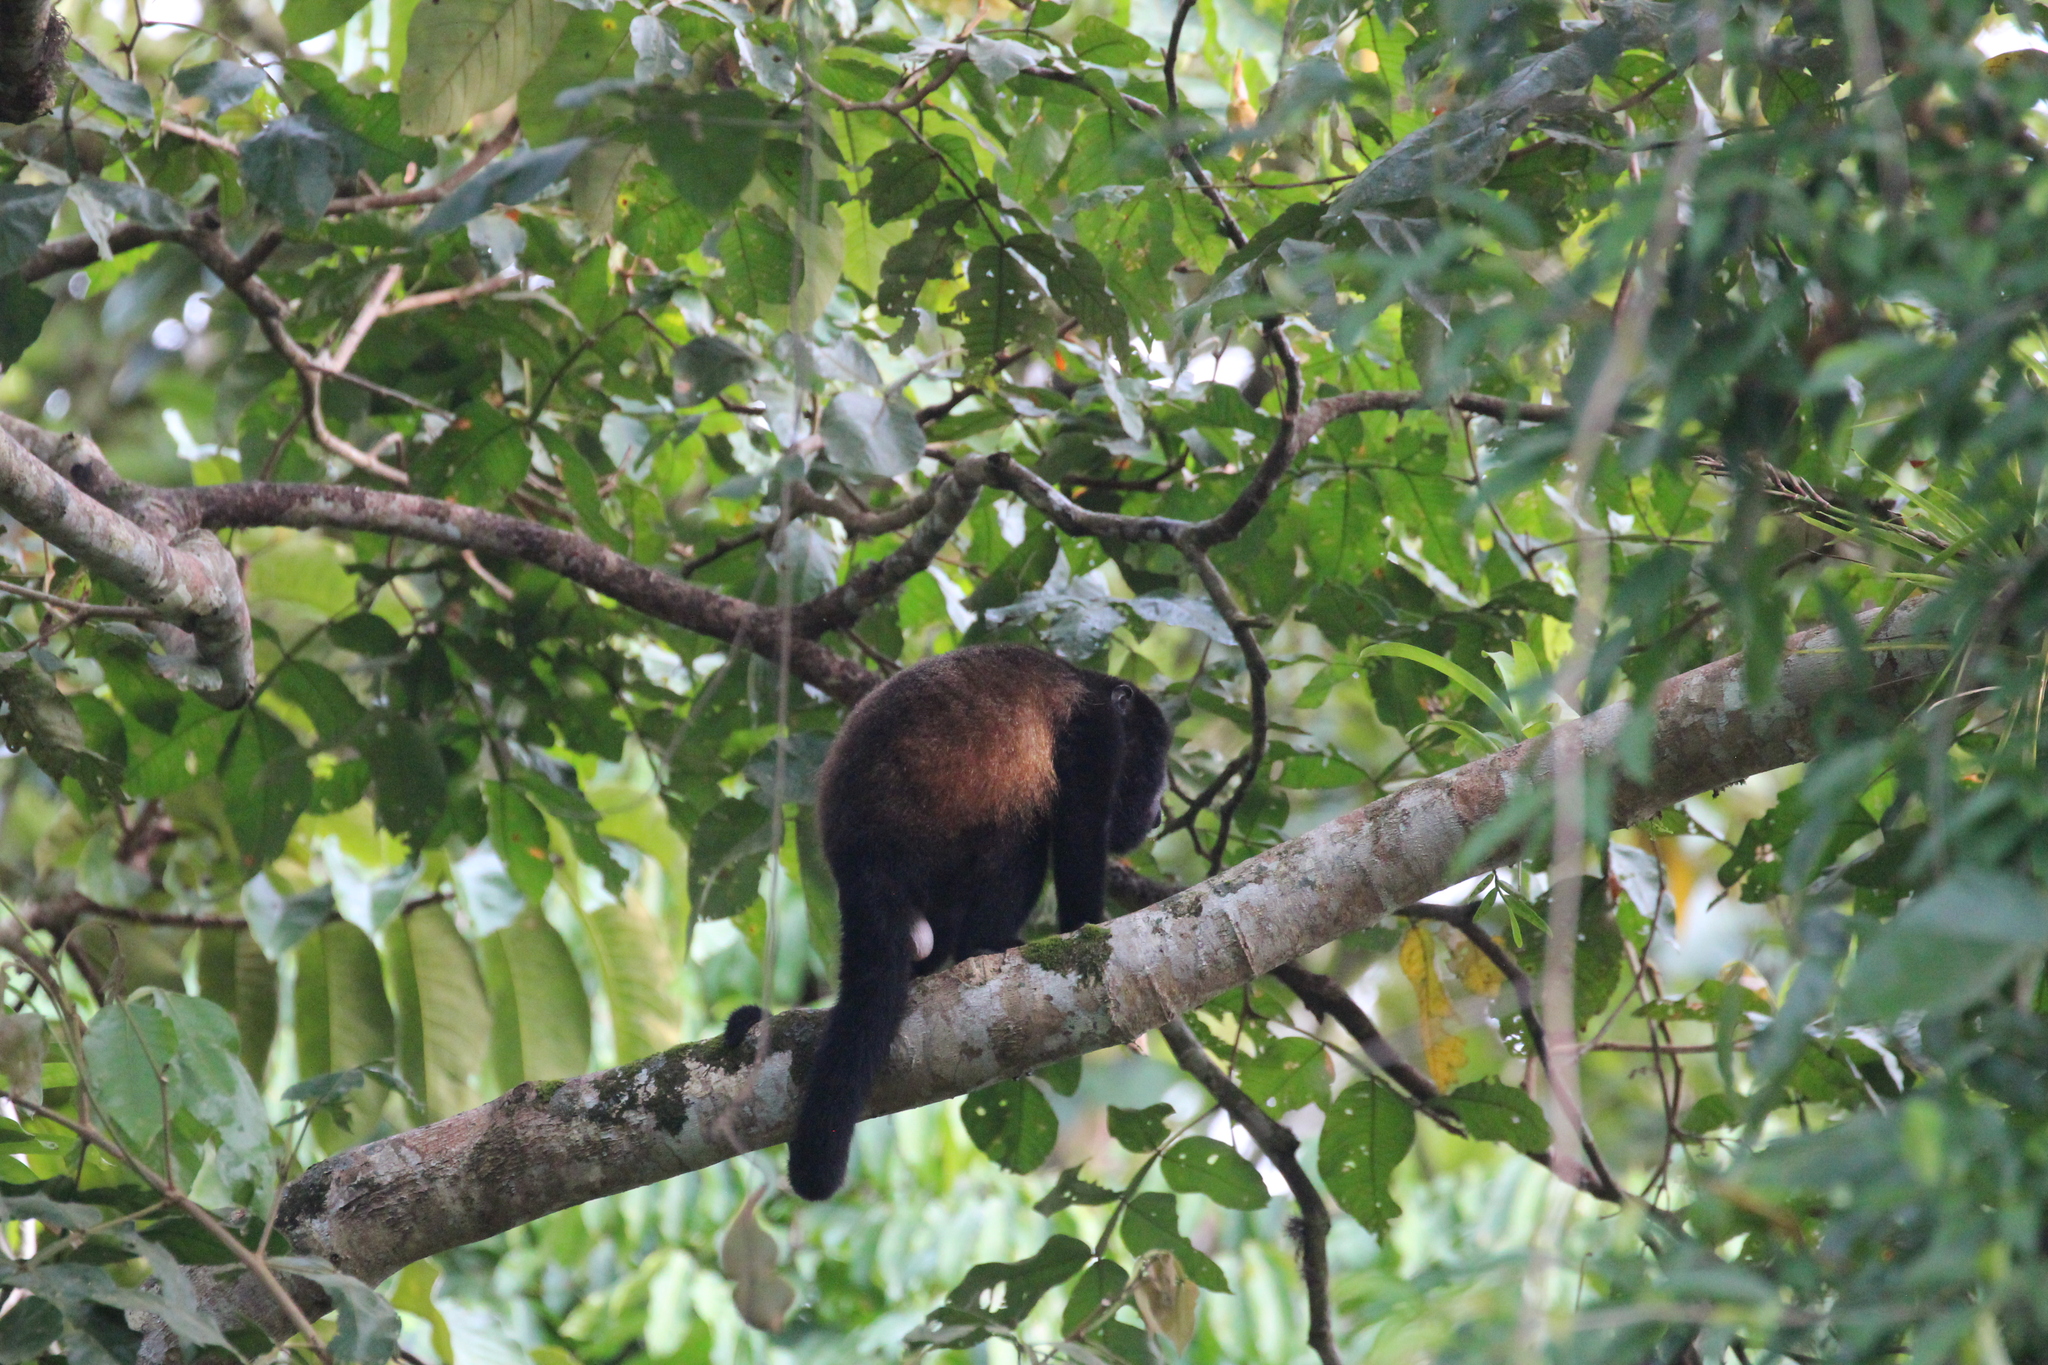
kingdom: Animalia
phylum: Chordata
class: Mammalia
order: Primates
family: Atelidae
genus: Alouatta
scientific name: Alouatta palliata
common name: Mantled howler
